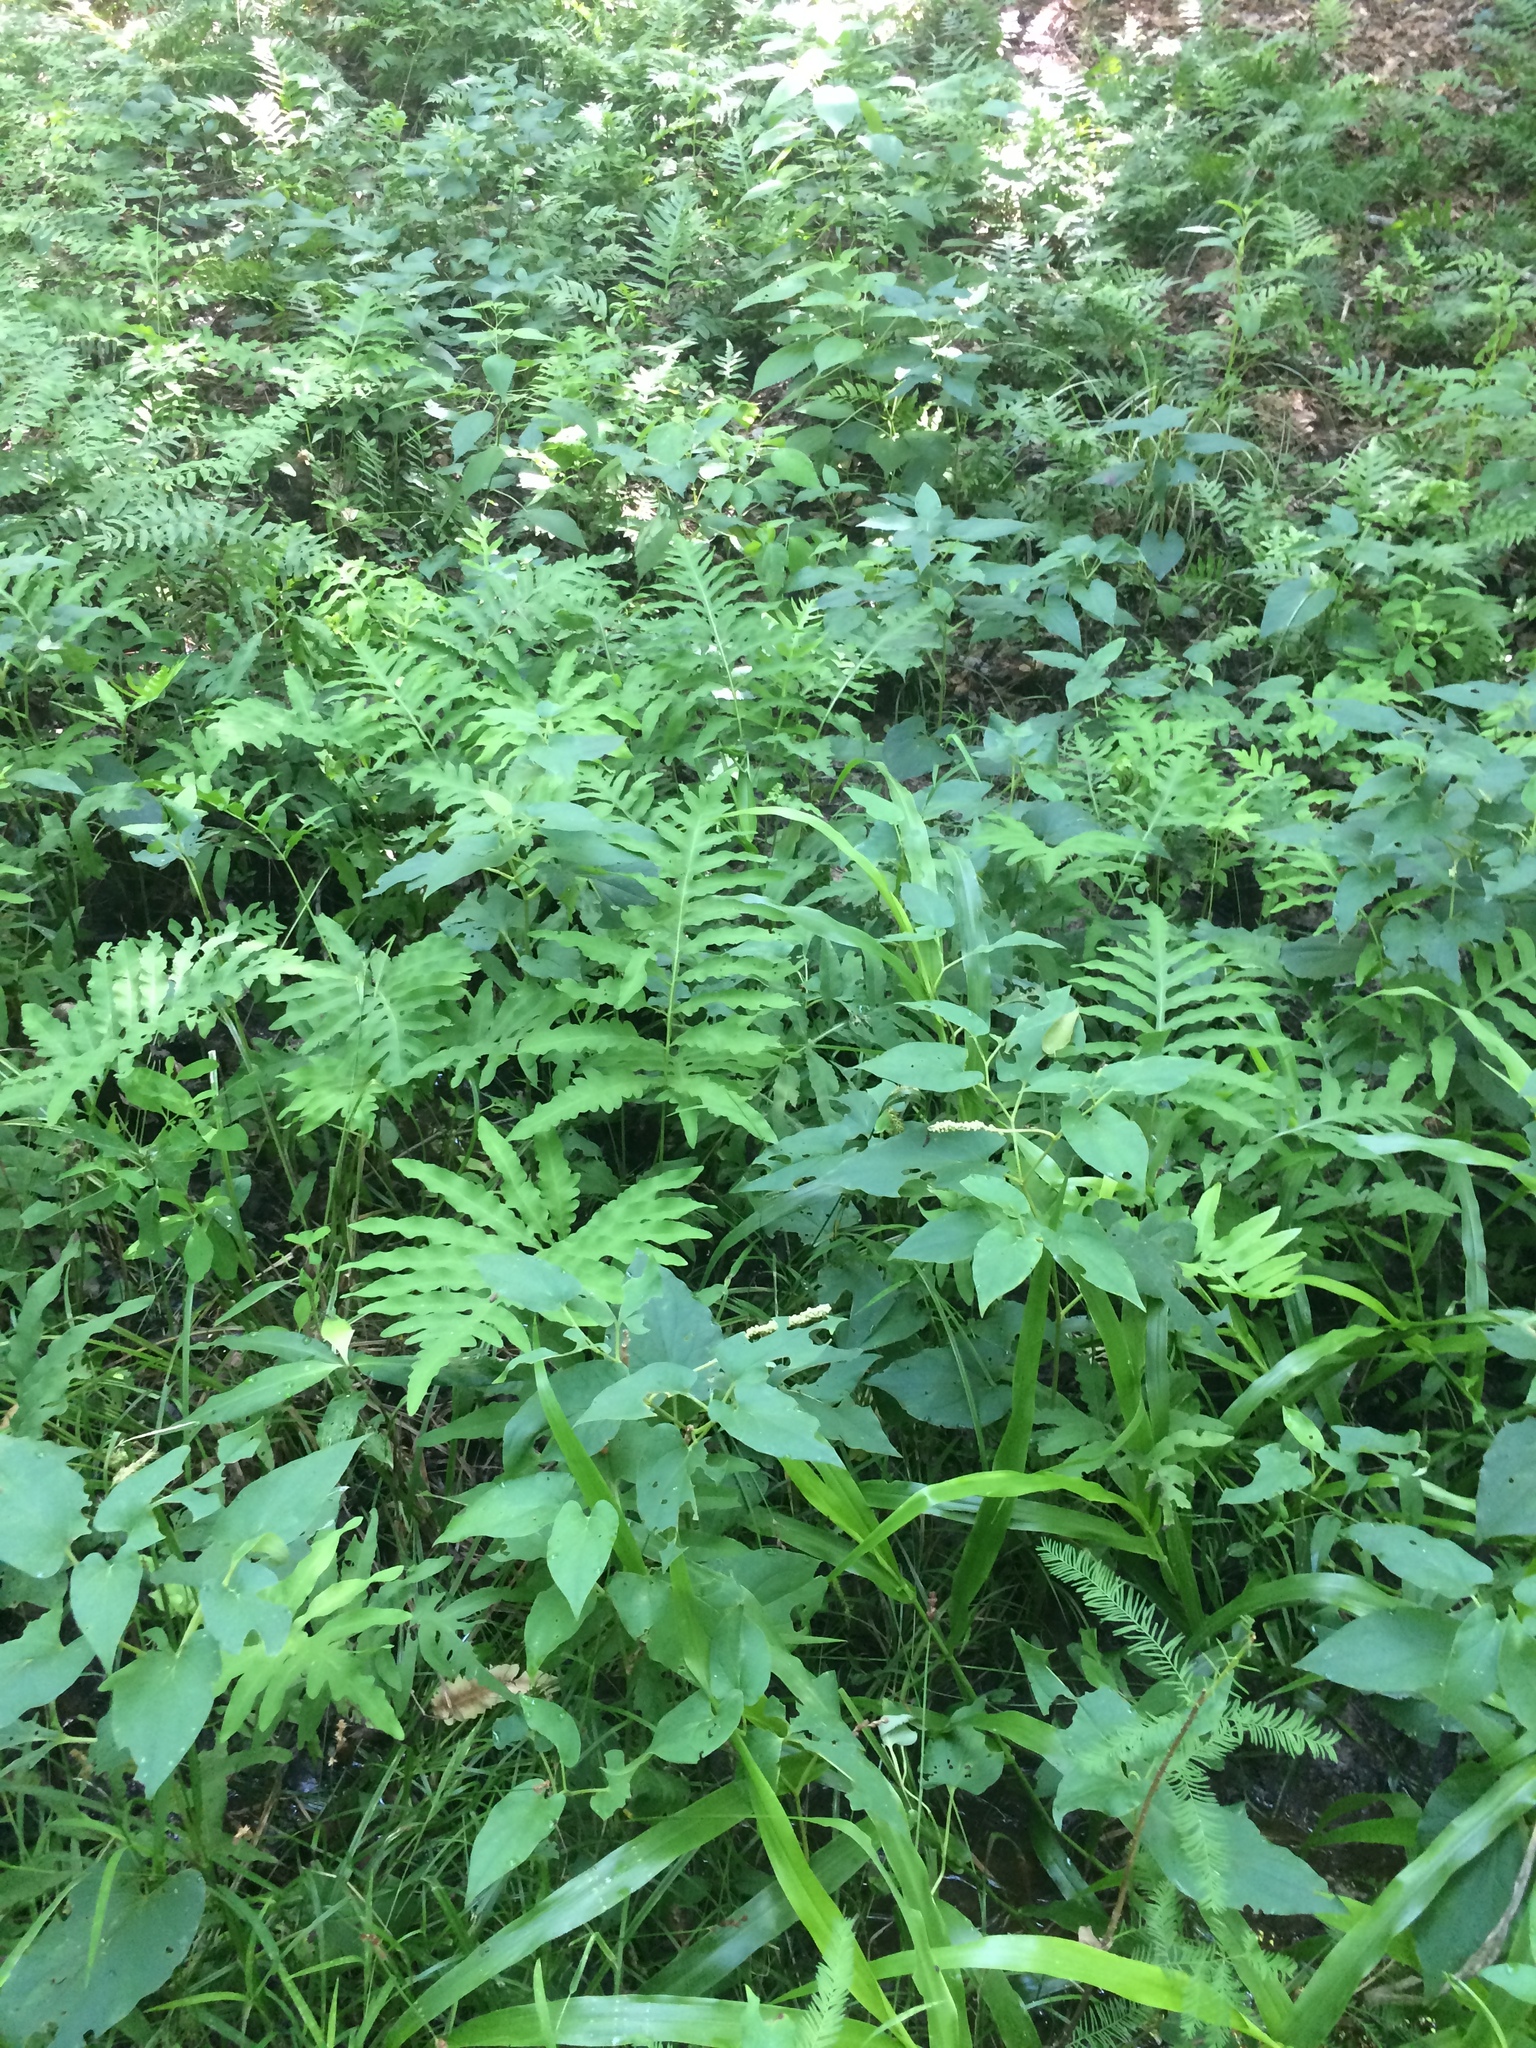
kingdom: Plantae
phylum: Tracheophyta
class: Polypodiopsida
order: Polypodiales
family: Onocleaceae
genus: Onoclea
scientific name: Onoclea sensibilis
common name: Sensitive fern
